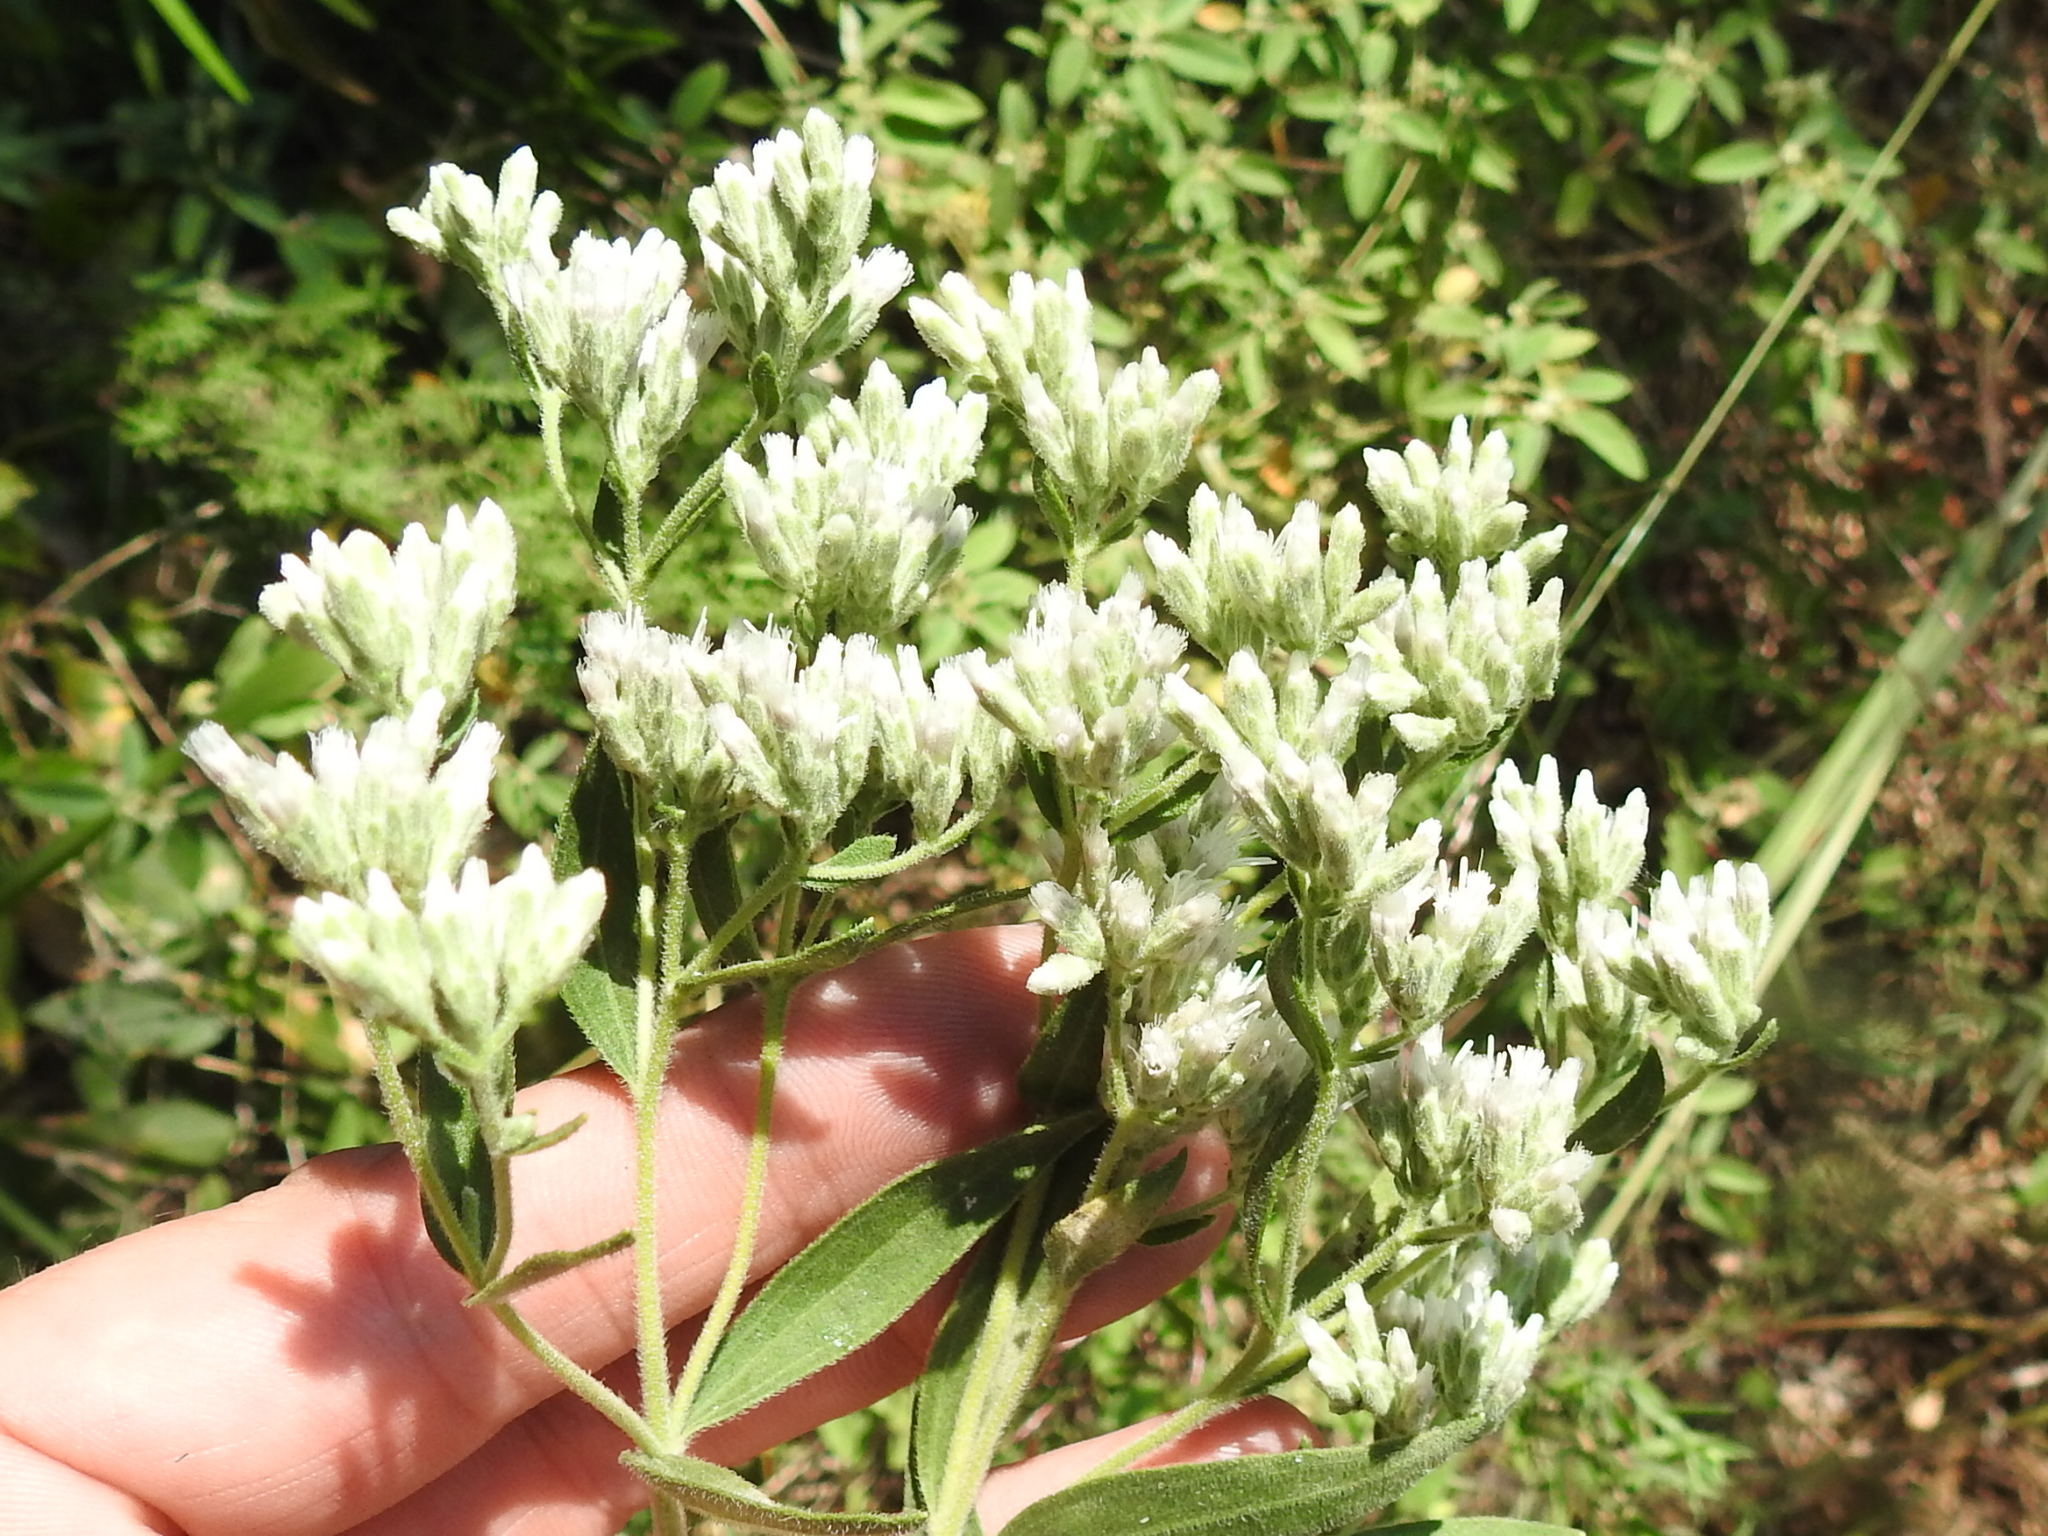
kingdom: Plantae
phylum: Tracheophyta
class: Magnoliopsida
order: Asterales
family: Asteraceae
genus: Eupatorium
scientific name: Eupatorium serotinum
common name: Late boneset
